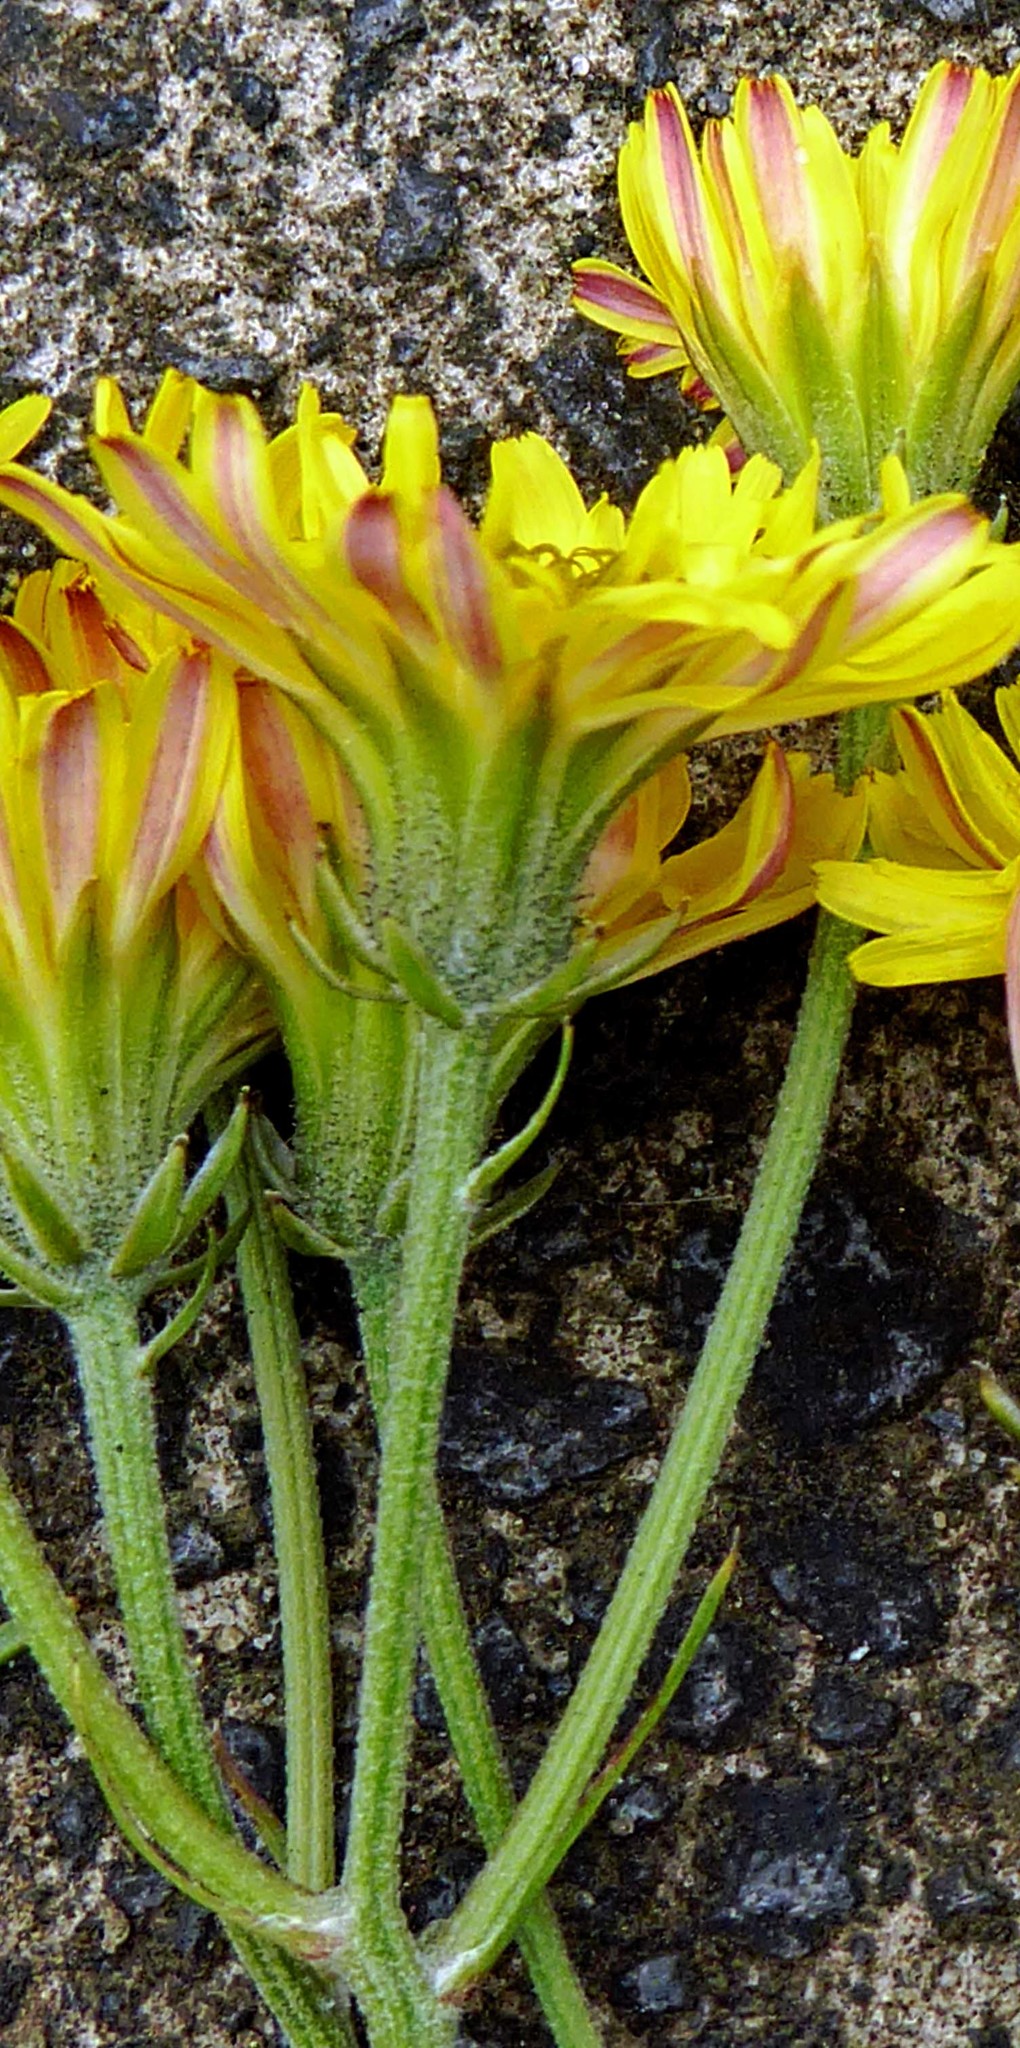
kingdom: Plantae
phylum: Tracheophyta
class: Magnoliopsida
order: Asterales
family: Asteraceae
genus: Crepis
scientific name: Crepis vesicaria
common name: Beaked hawksbeard
